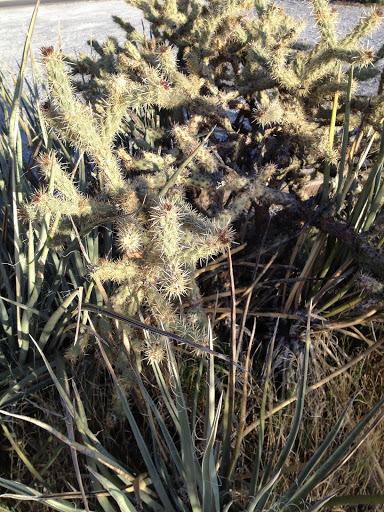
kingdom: Plantae
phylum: Tracheophyta
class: Magnoliopsida
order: Caryophyllales
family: Cactaceae
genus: Cylindropuntia
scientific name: Cylindropuntia acanthocarpa
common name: Buckhorn cholla
